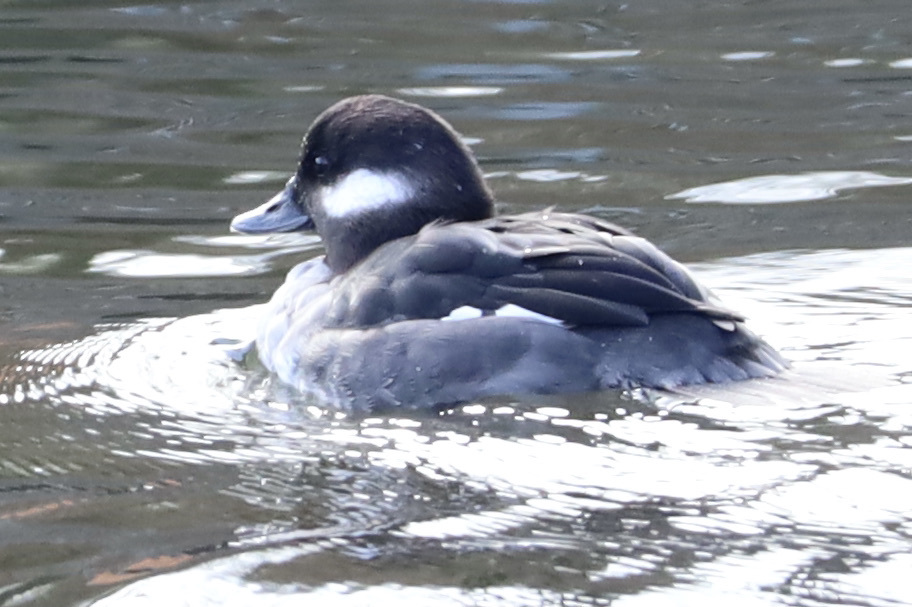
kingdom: Animalia
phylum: Chordata
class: Aves
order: Anseriformes
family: Anatidae
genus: Bucephala
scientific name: Bucephala albeola
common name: Bufflehead
